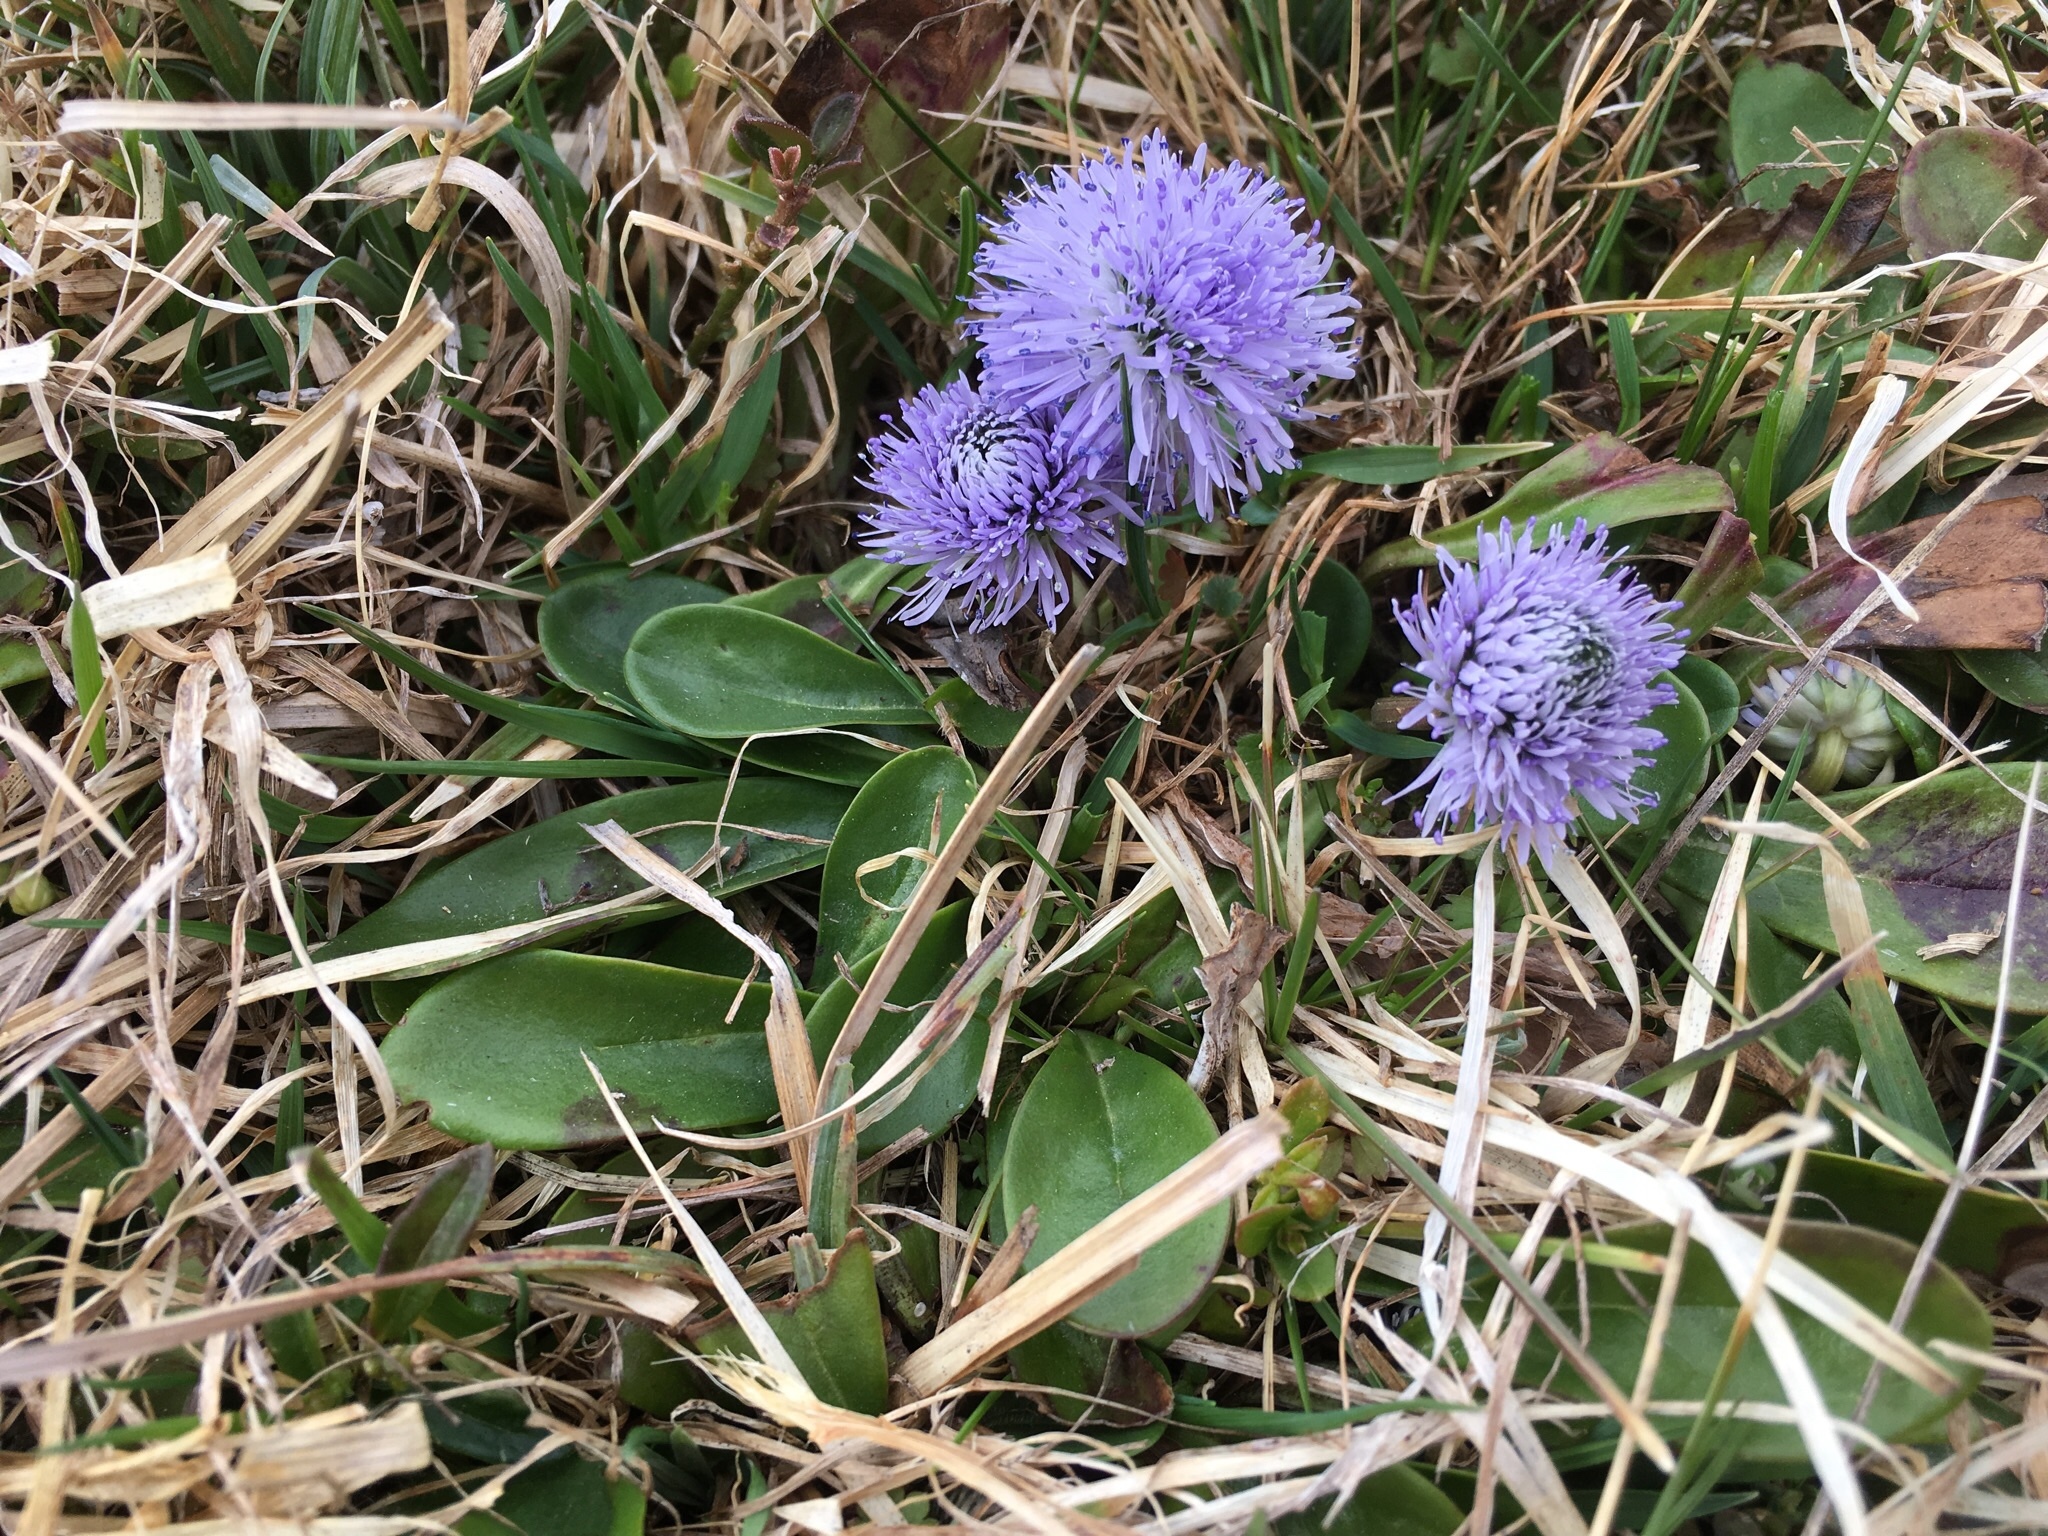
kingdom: Plantae
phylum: Tracheophyta
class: Magnoliopsida
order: Lamiales
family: Plantaginaceae
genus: Globularia
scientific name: Globularia nudicaulis
